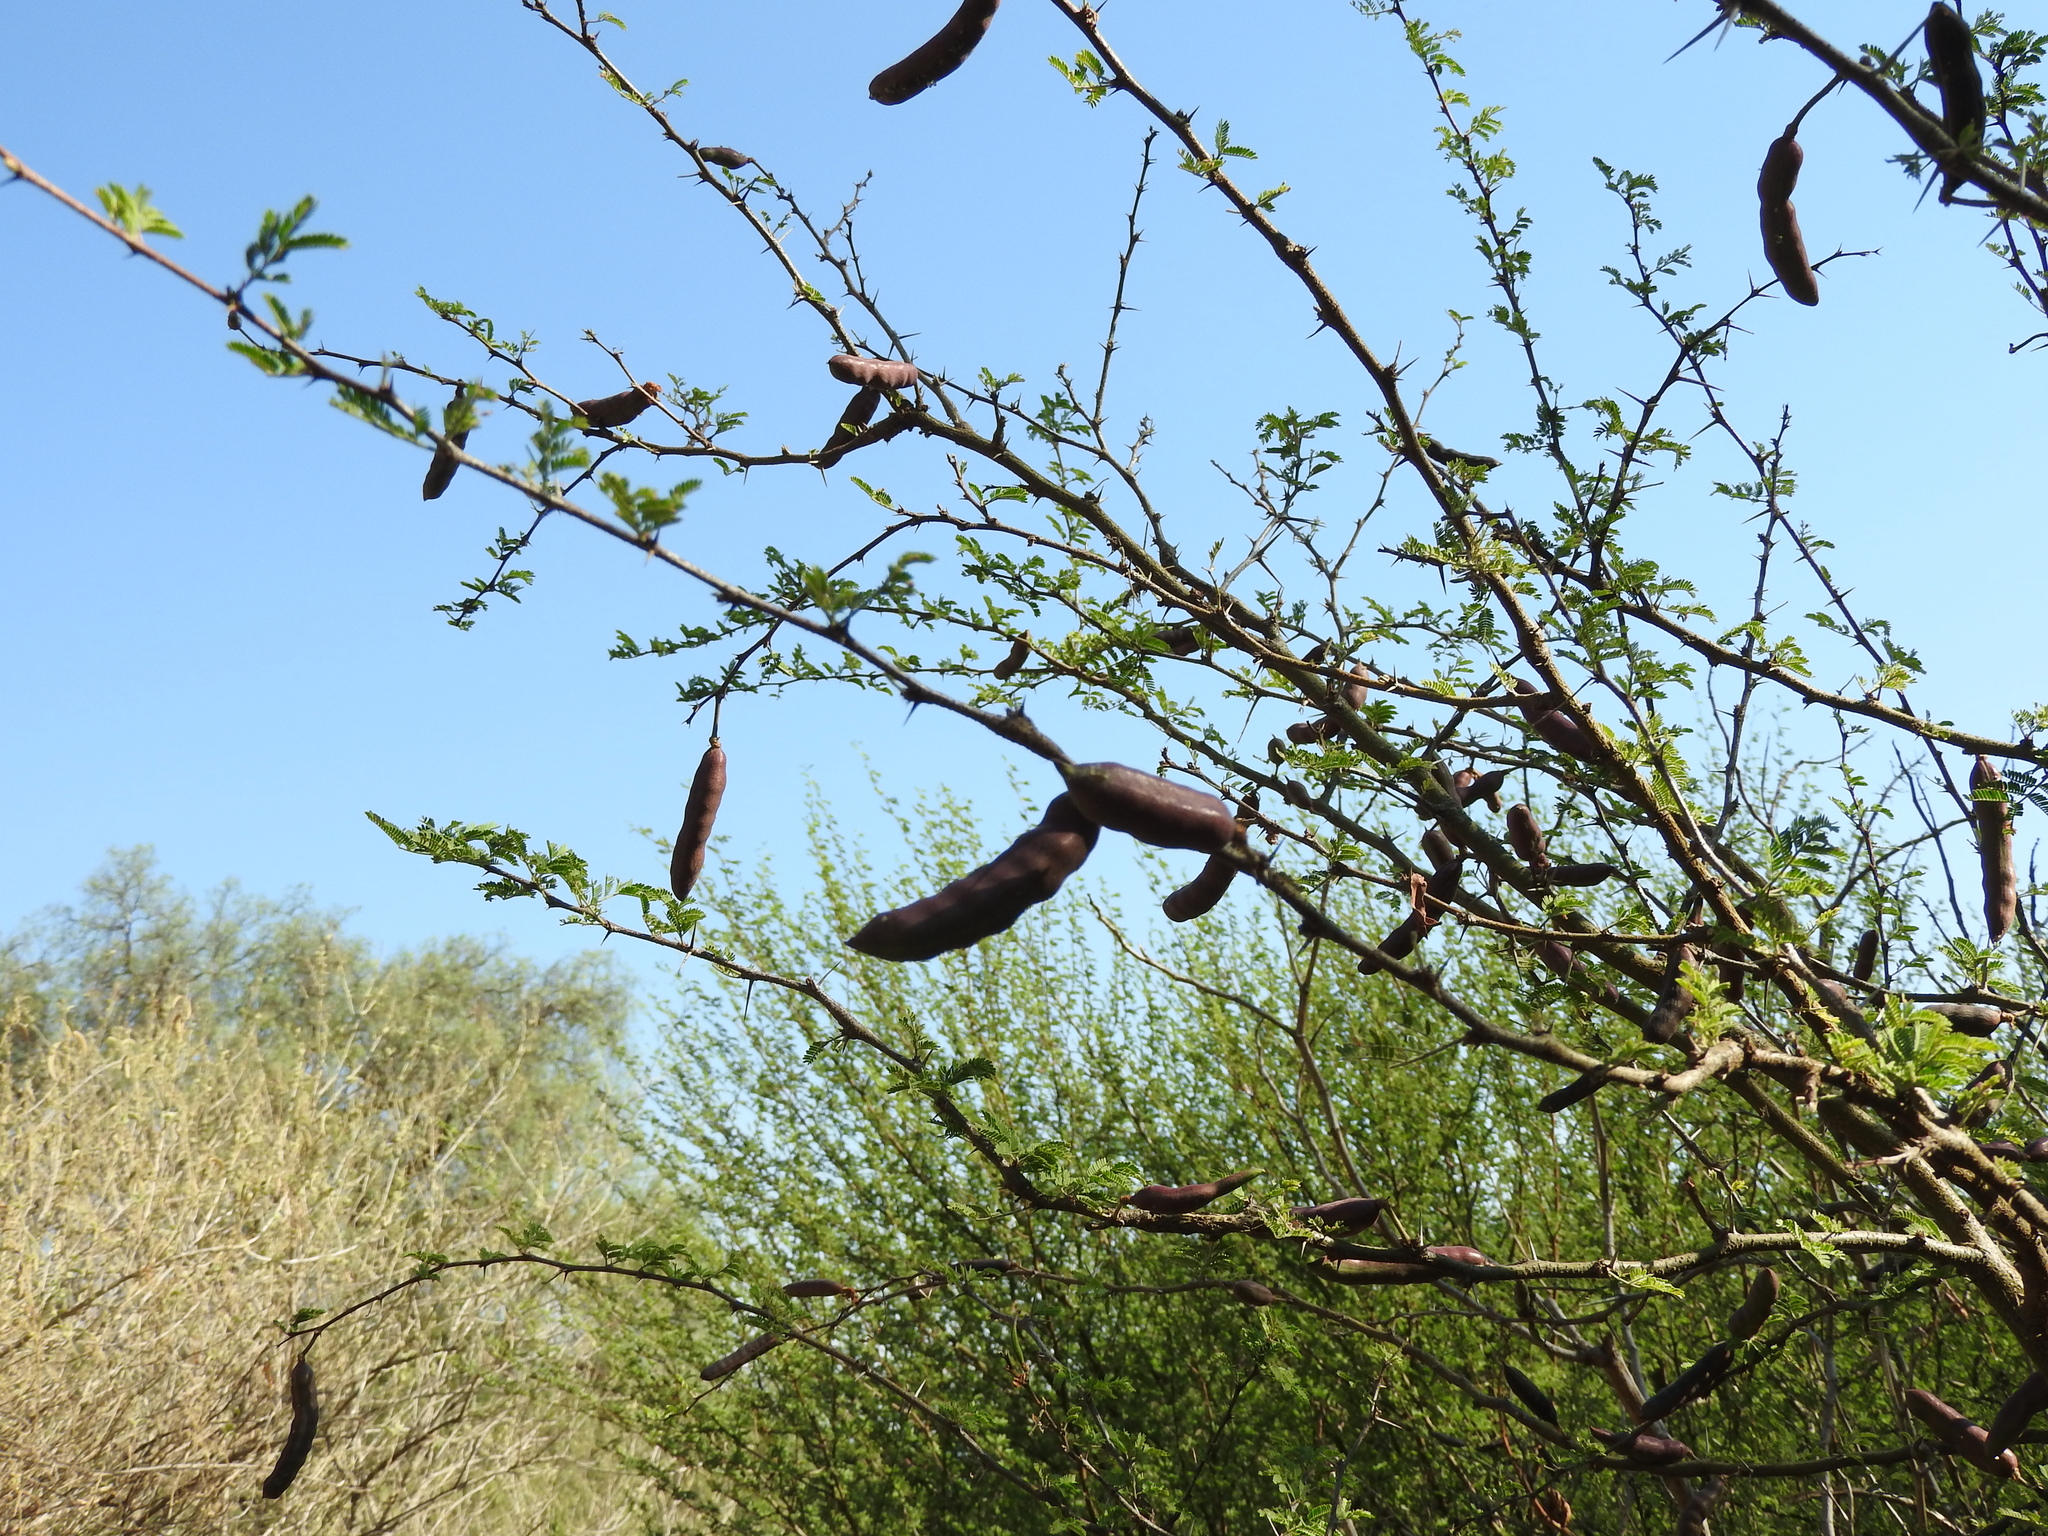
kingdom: Plantae
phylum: Tracheophyta
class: Magnoliopsida
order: Fabales
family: Fabaceae
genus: Vachellia
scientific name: Vachellia farnesiana
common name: Sweet acacia
